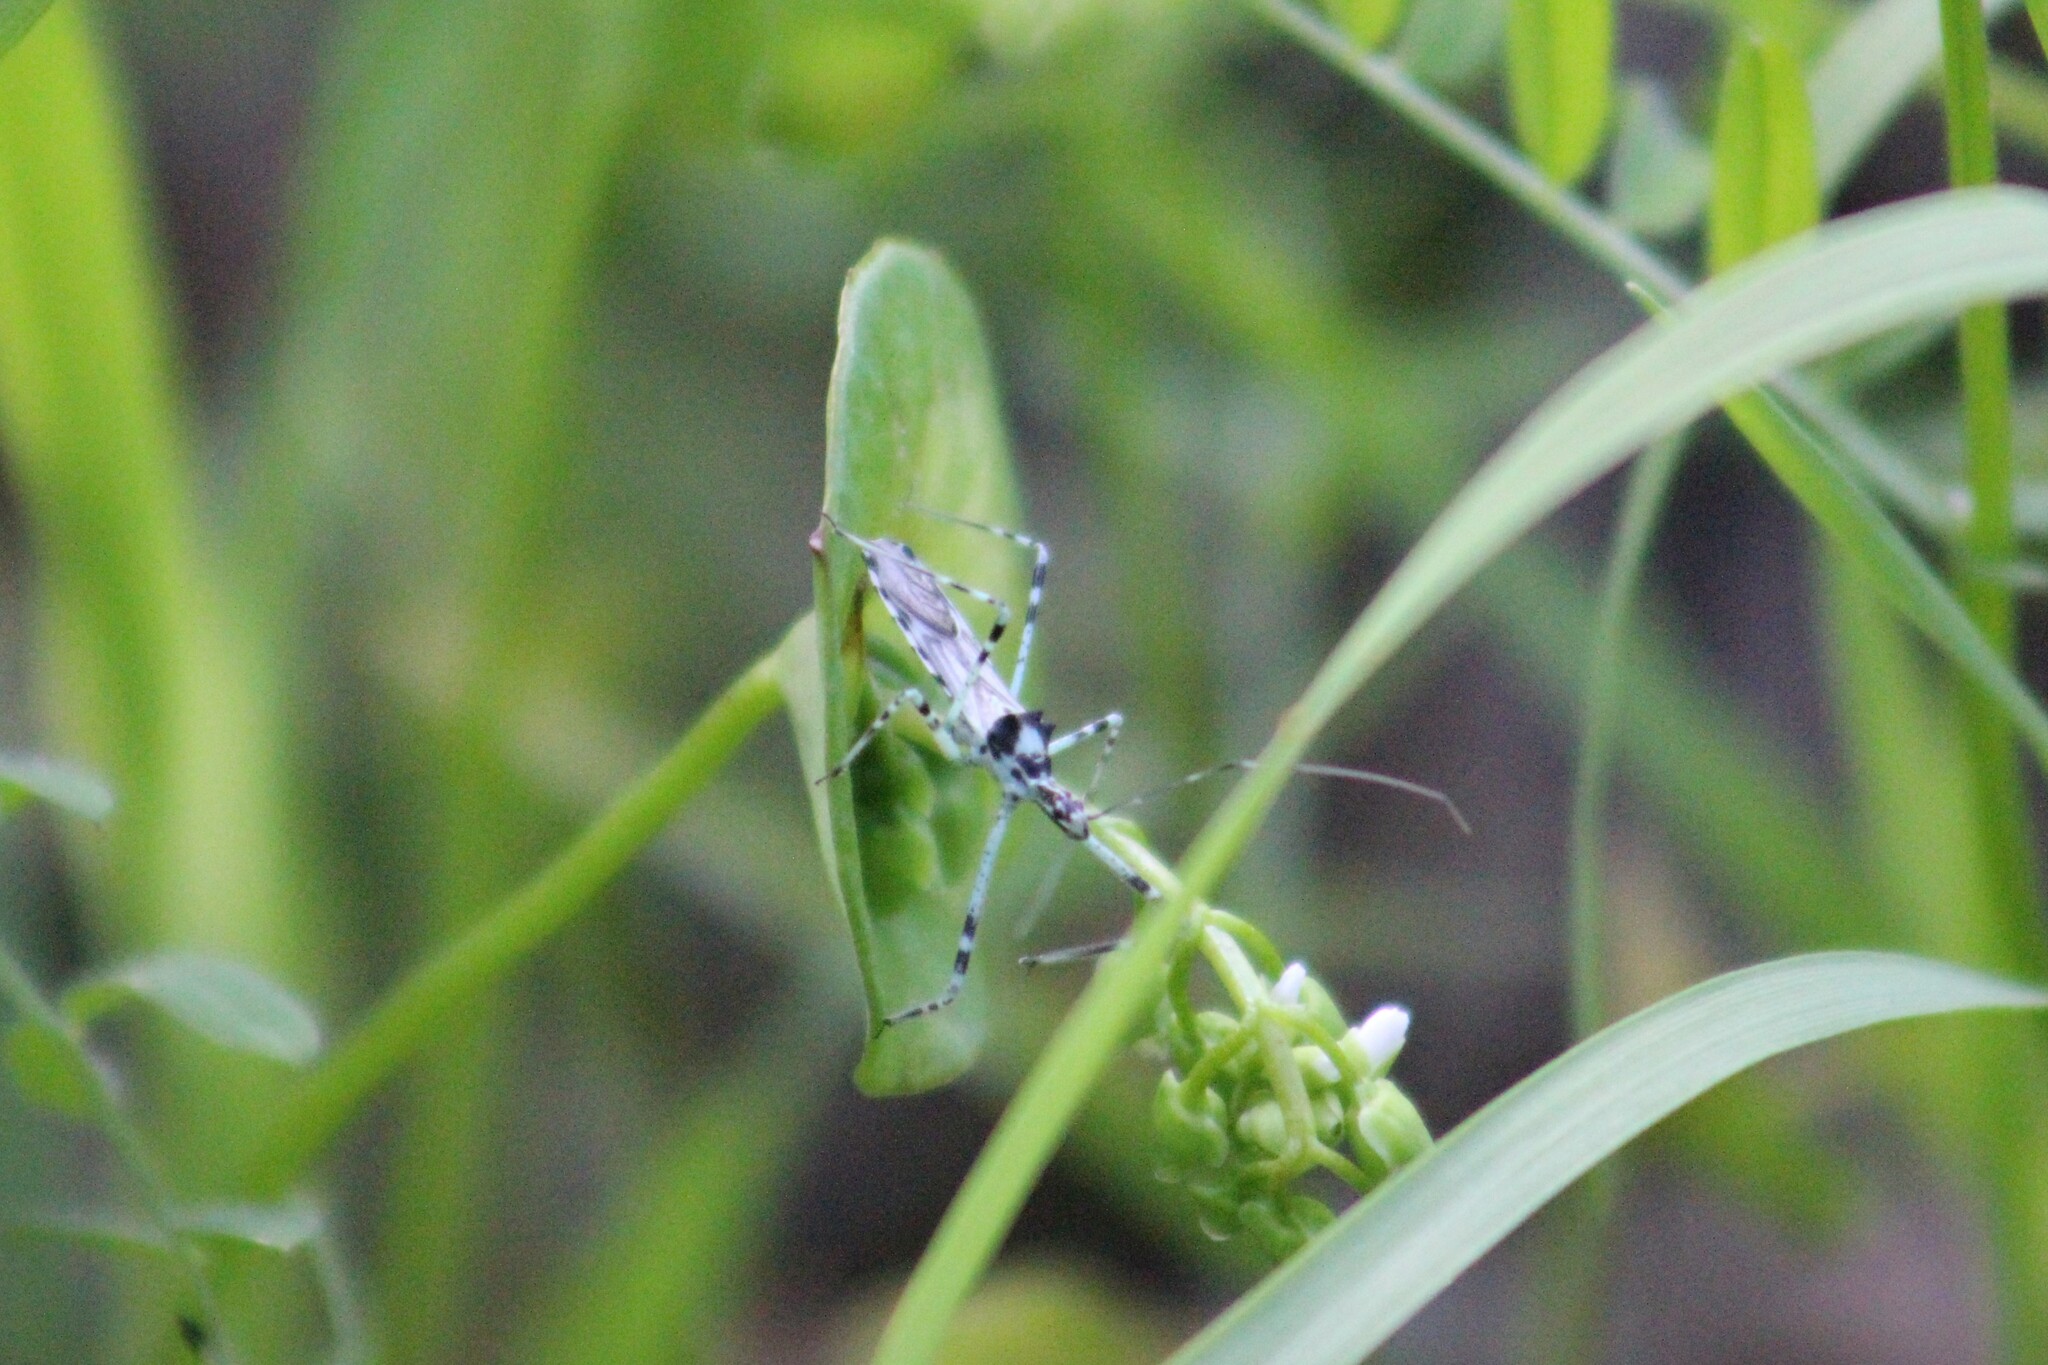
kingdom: Animalia
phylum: Arthropoda
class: Insecta
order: Hemiptera
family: Reduviidae
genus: Zelus
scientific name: Zelus tetracanthus
